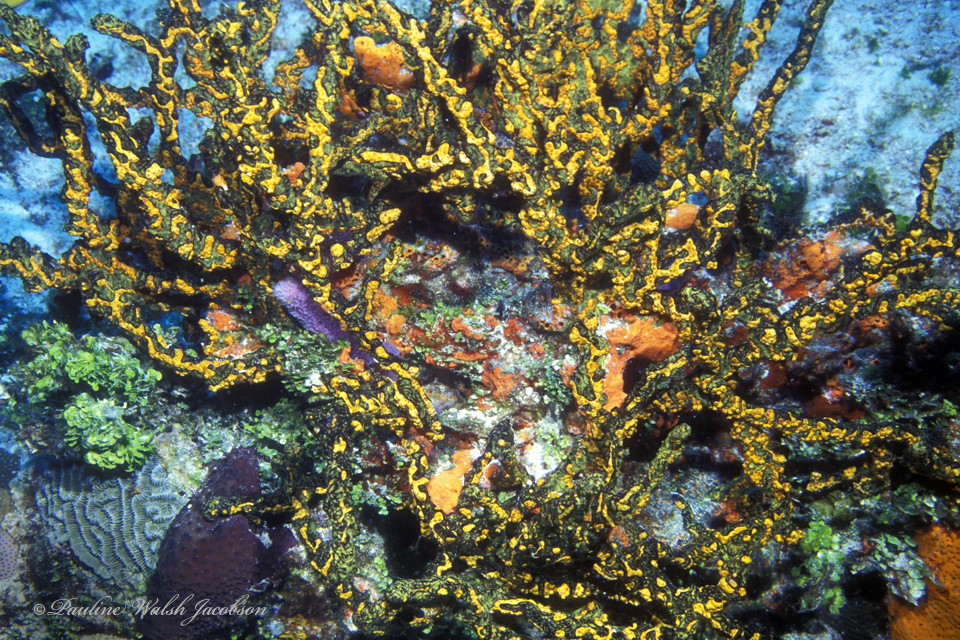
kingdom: Animalia
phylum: Porifera
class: Demospongiae
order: Poecilosclerida
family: Iotrochotidae
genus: Iotrochota
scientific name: Iotrochota birotulata
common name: Purple bleeding sponge
